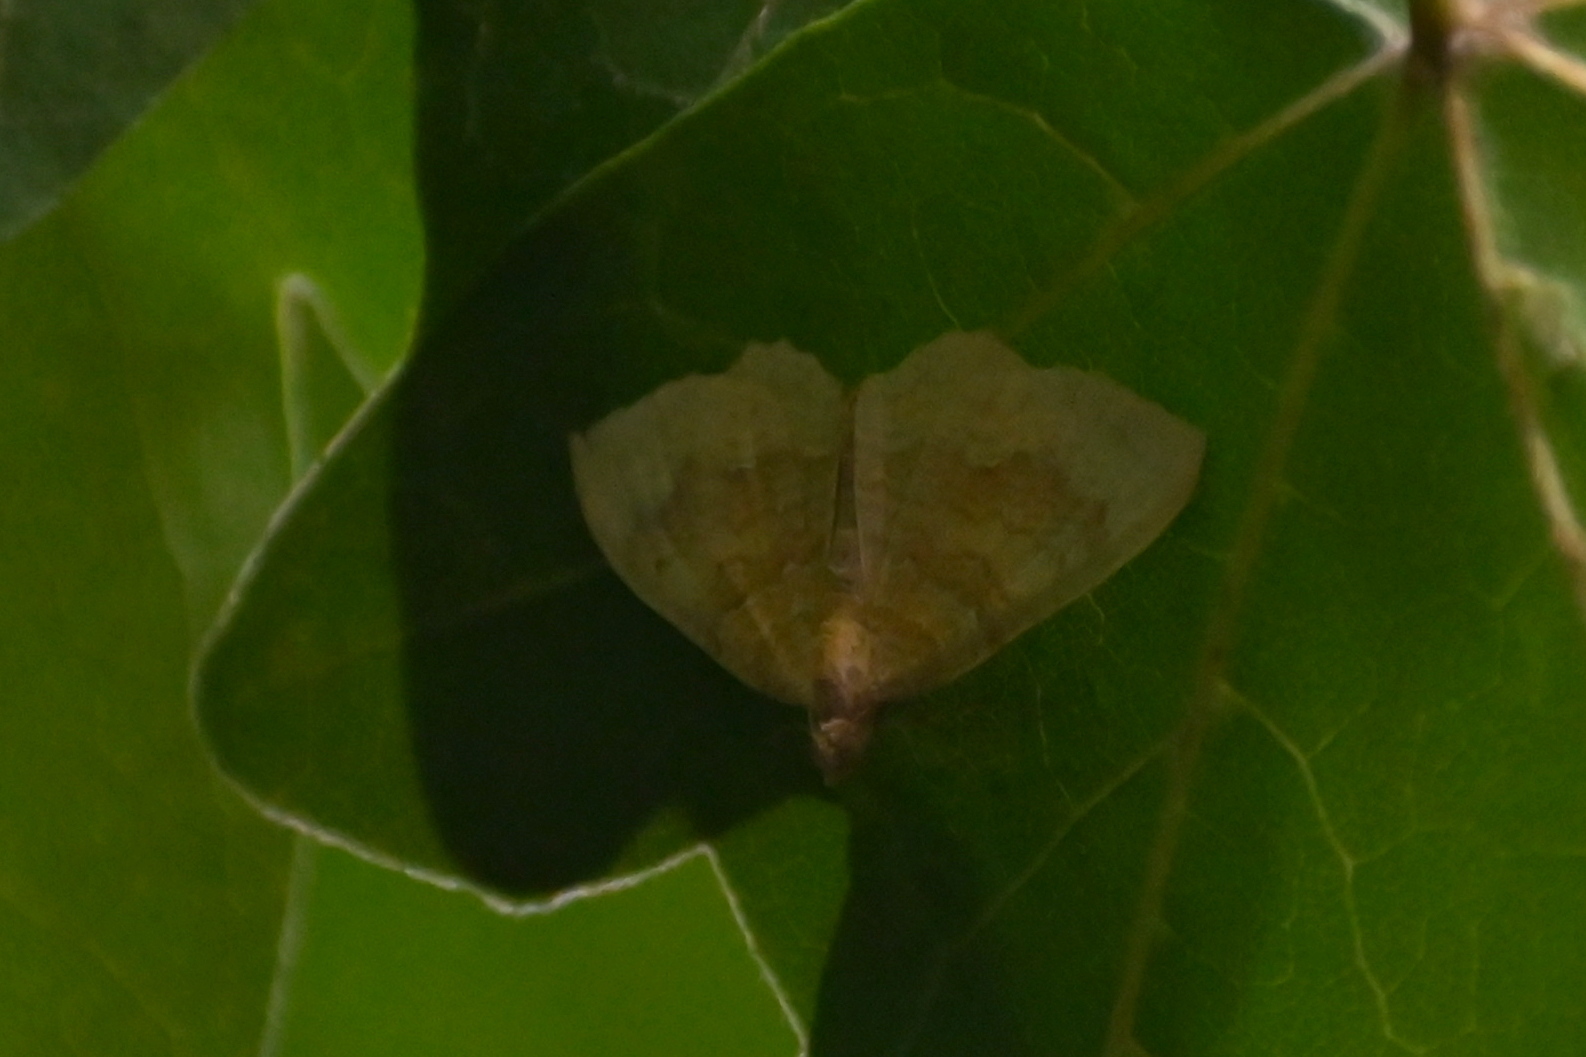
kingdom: Animalia
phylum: Arthropoda
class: Insecta
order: Lepidoptera
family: Geometridae
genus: Camptogramma
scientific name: Camptogramma bilineata
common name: Yellow shell
